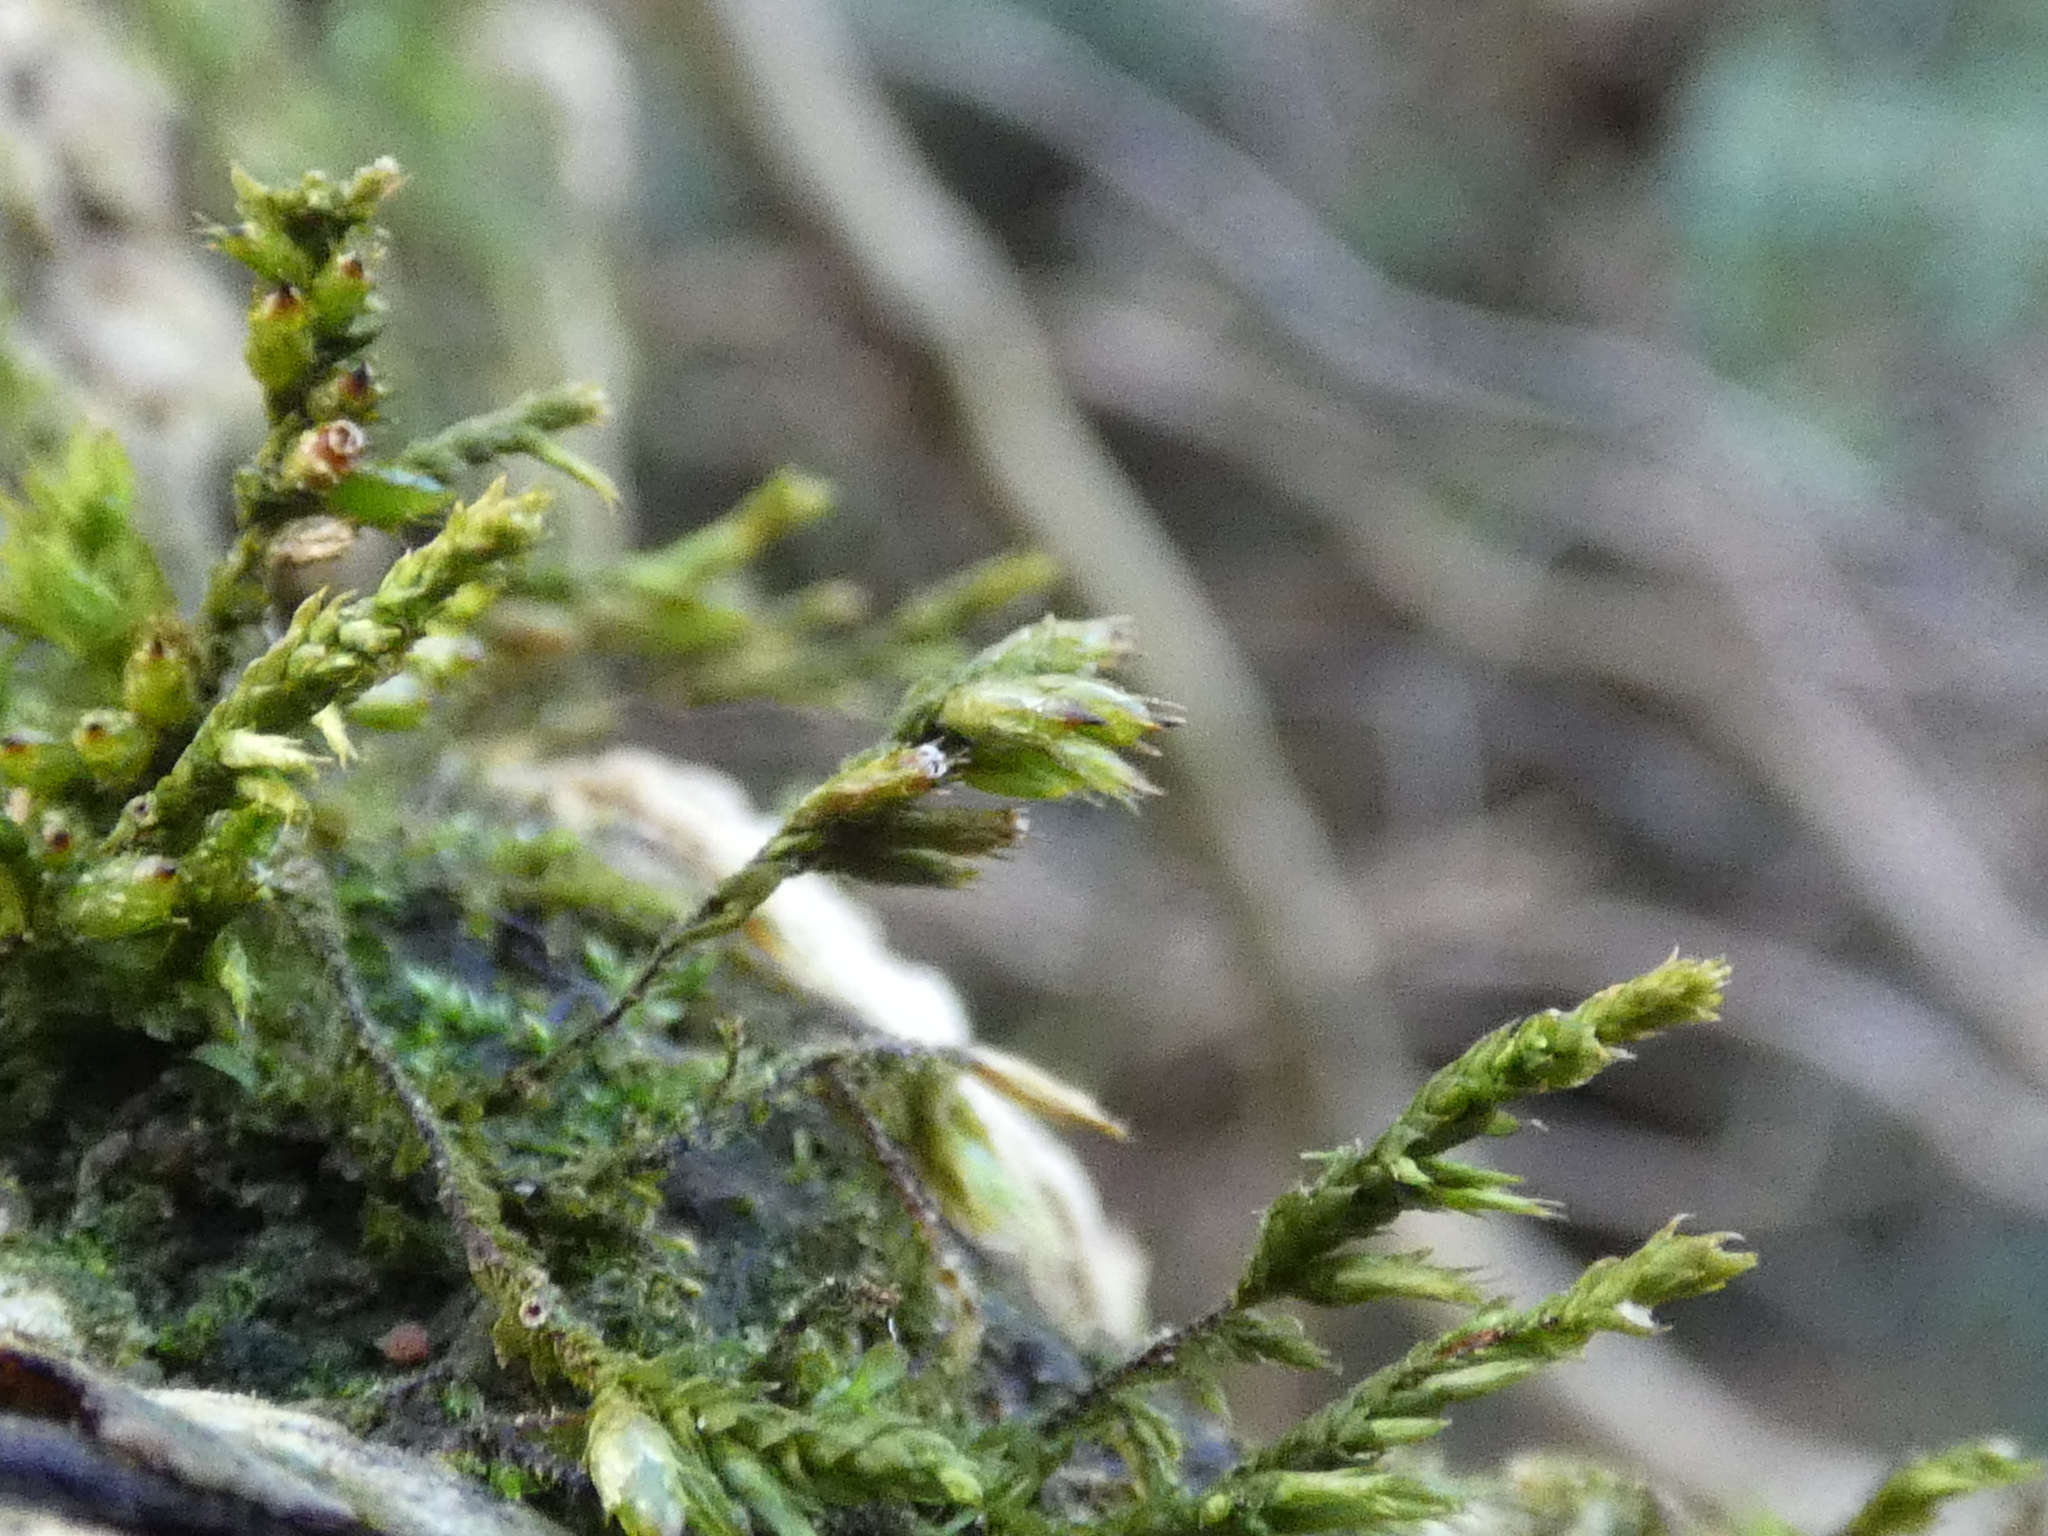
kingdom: Plantae
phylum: Bryophyta
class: Bryopsida
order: Hypnales
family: Cryphaeaceae
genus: Cryphaea
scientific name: Cryphaea heteromalla
